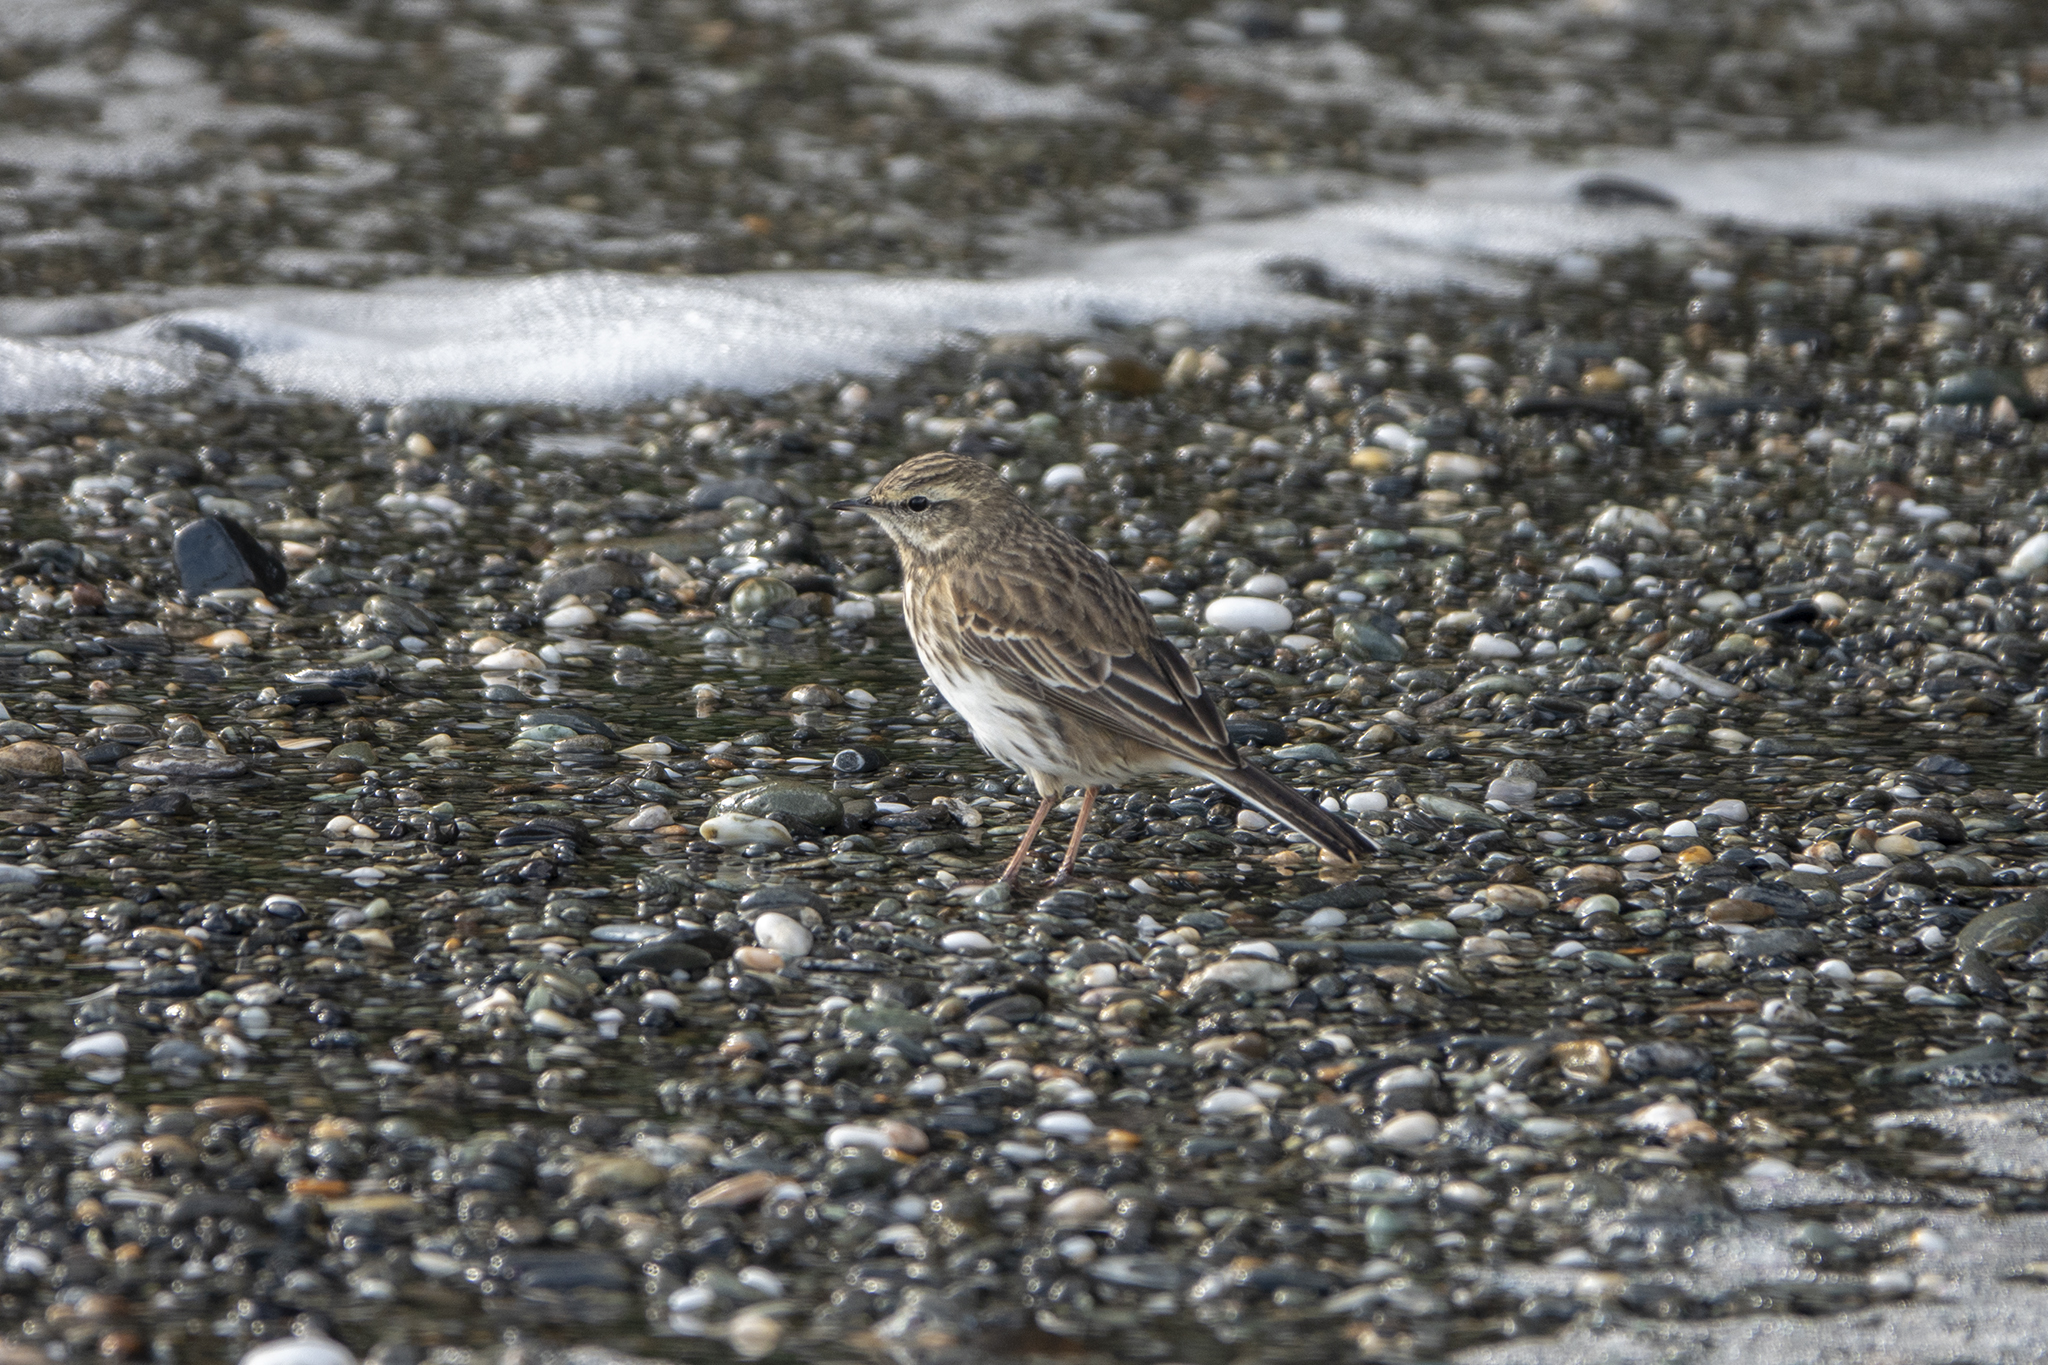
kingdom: Animalia
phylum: Chordata
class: Aves
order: Passeriformes
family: Motacillidae
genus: Anthus
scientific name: Anthus novaeseelandiae
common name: New zealand pipit
